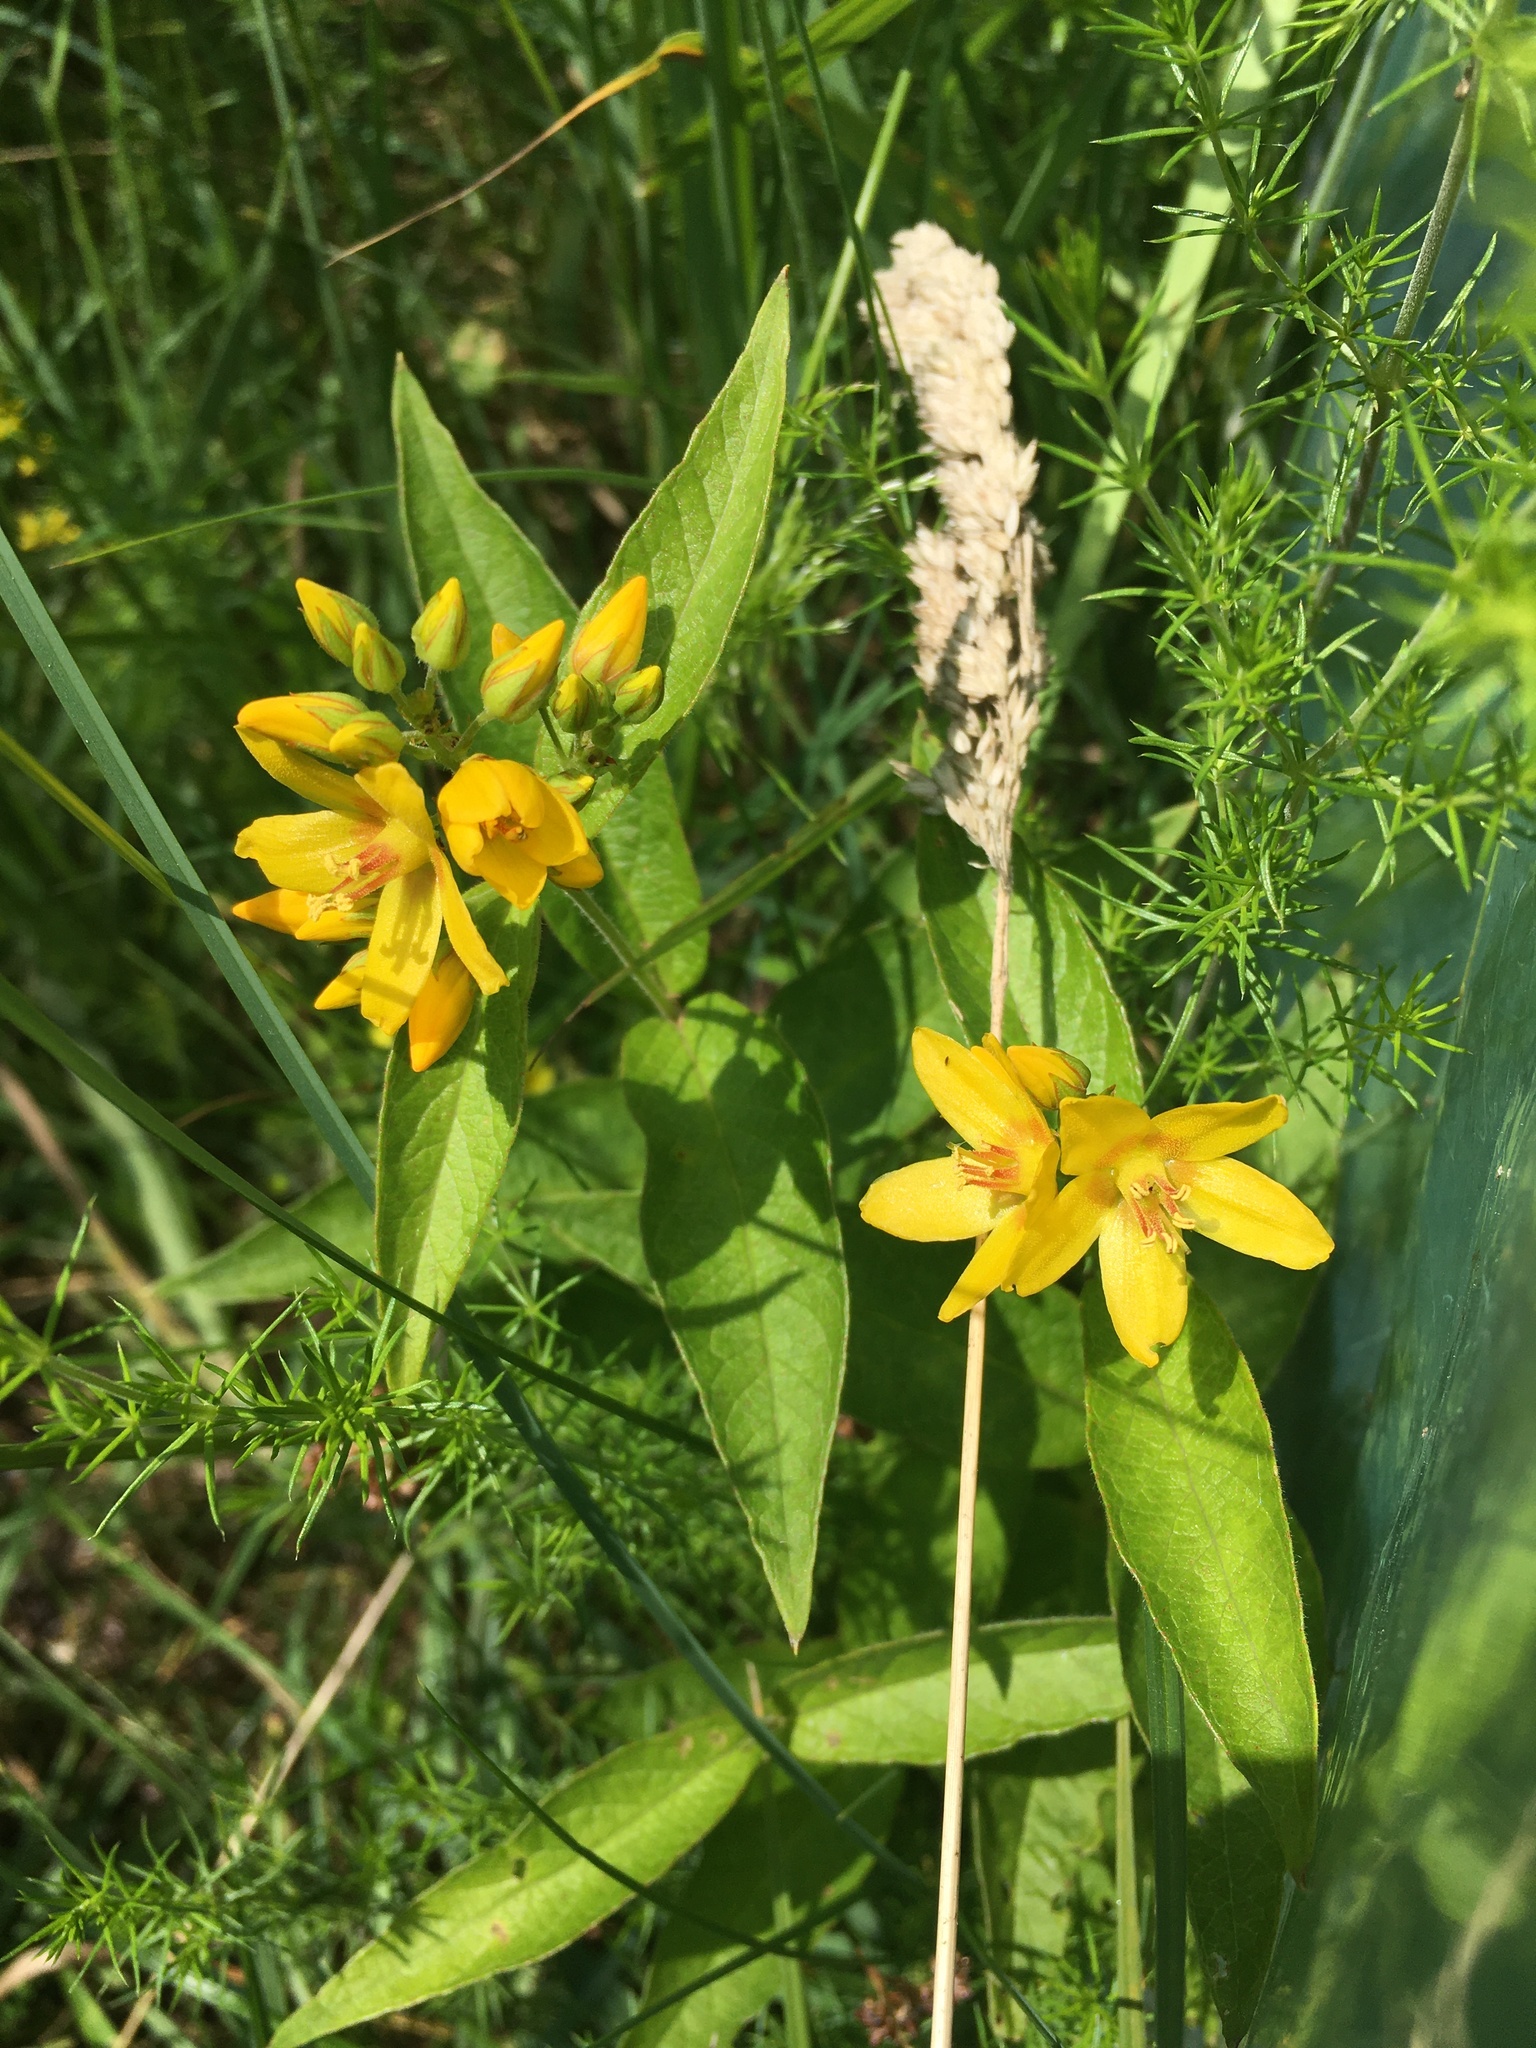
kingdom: Plantae
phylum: Tracheophyta
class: Magnoliopsida
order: Ericales
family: Primulaceae
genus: Lysimachia
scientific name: Lysimachia vulgaris
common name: Yellow loosestrife
